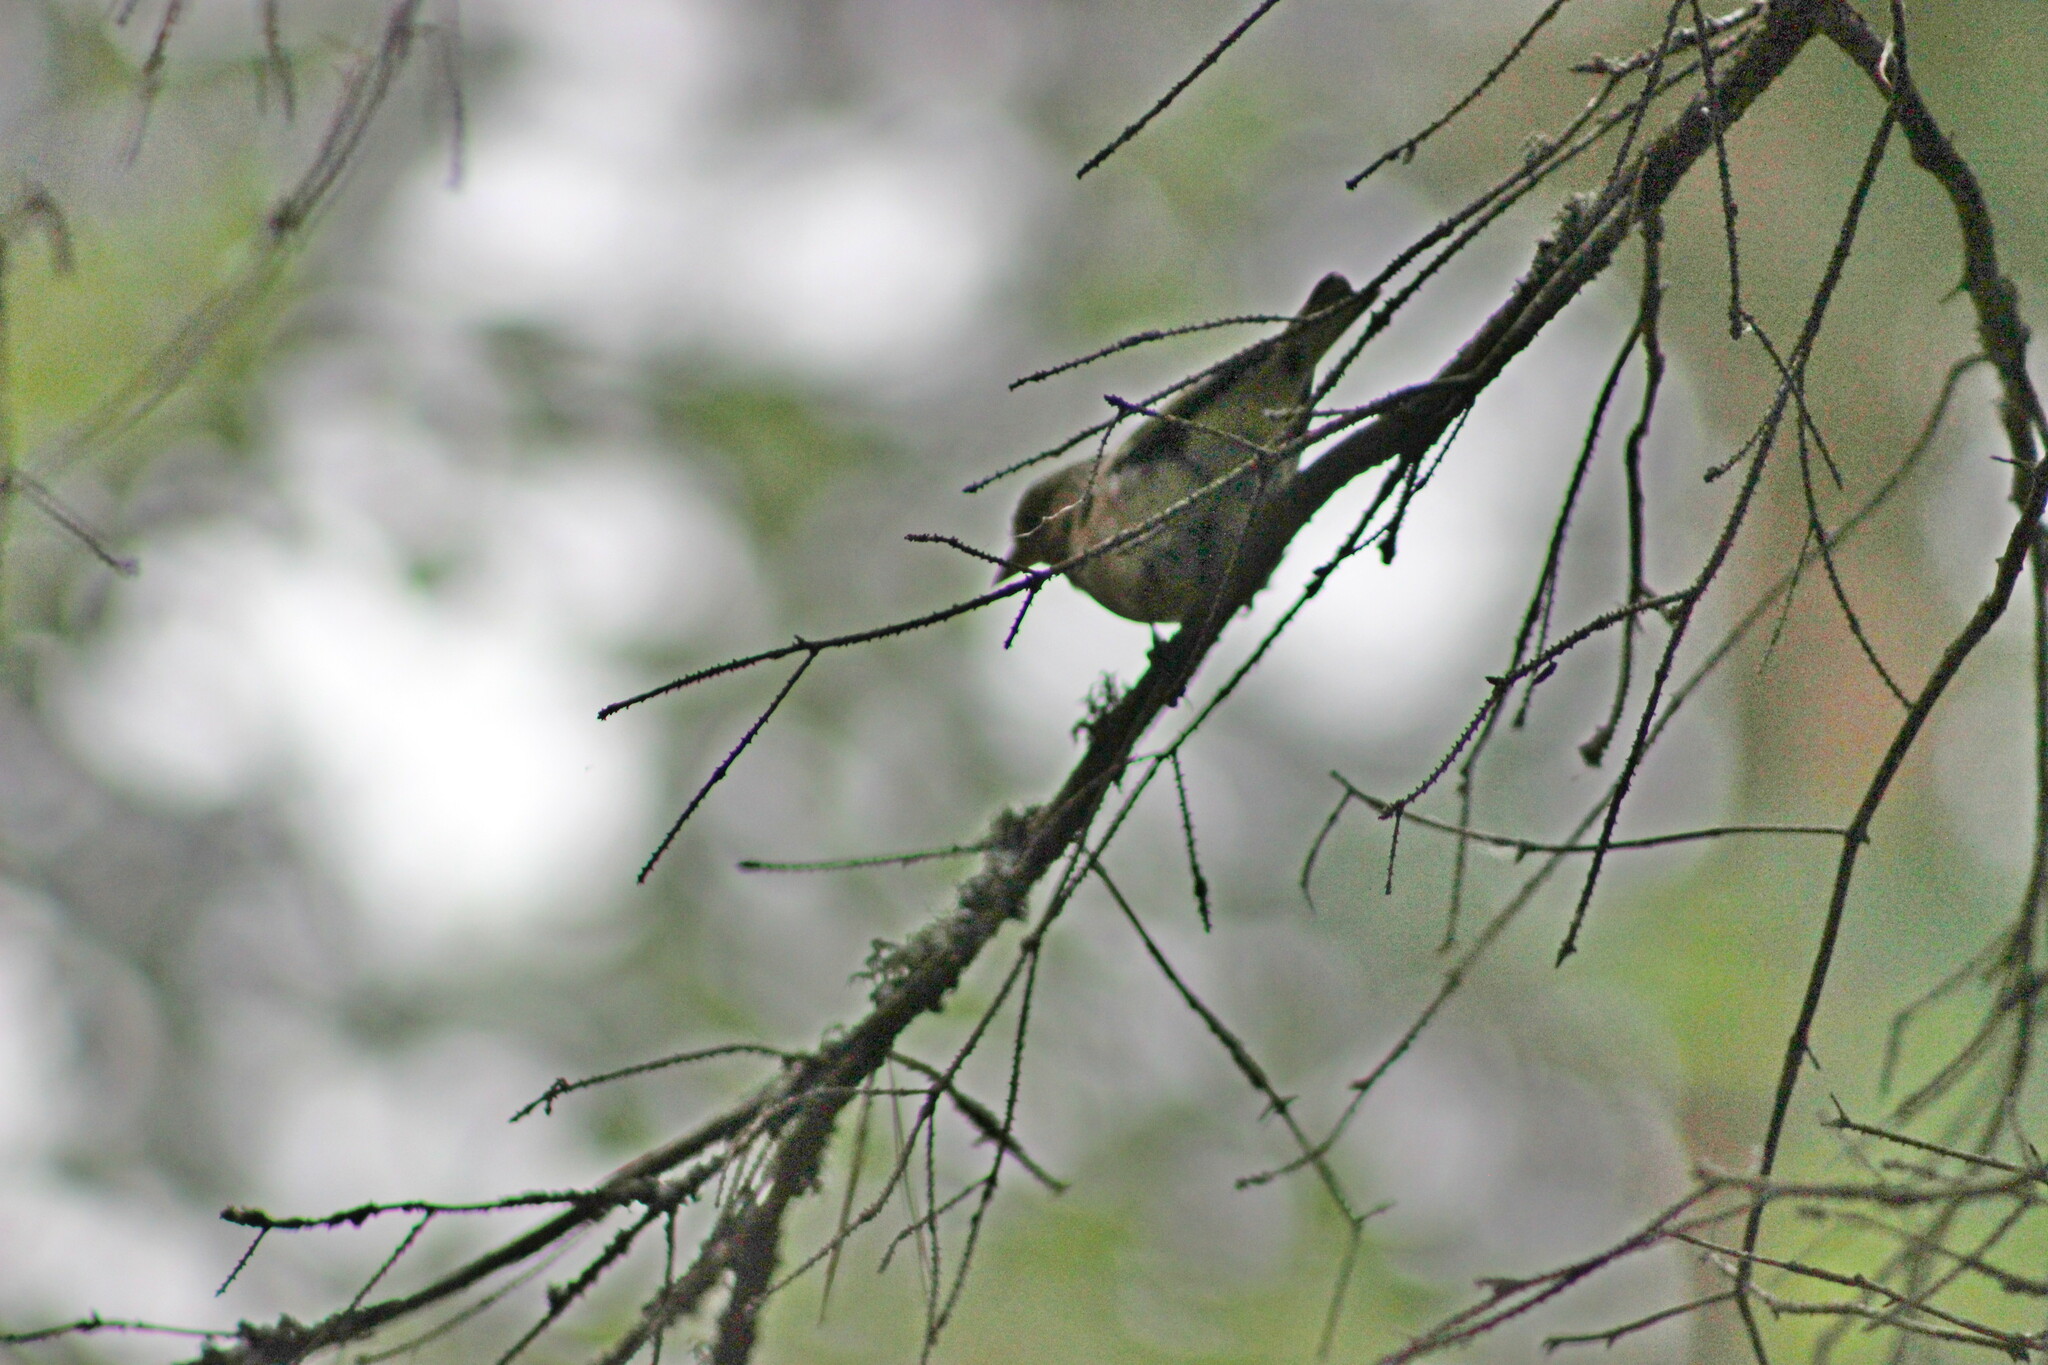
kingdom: Animalia
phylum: Chordata
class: Aves
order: Passeriformes
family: Fringillidae
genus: Fringilla
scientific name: Fringilla coelebs
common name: Common chaffinch
